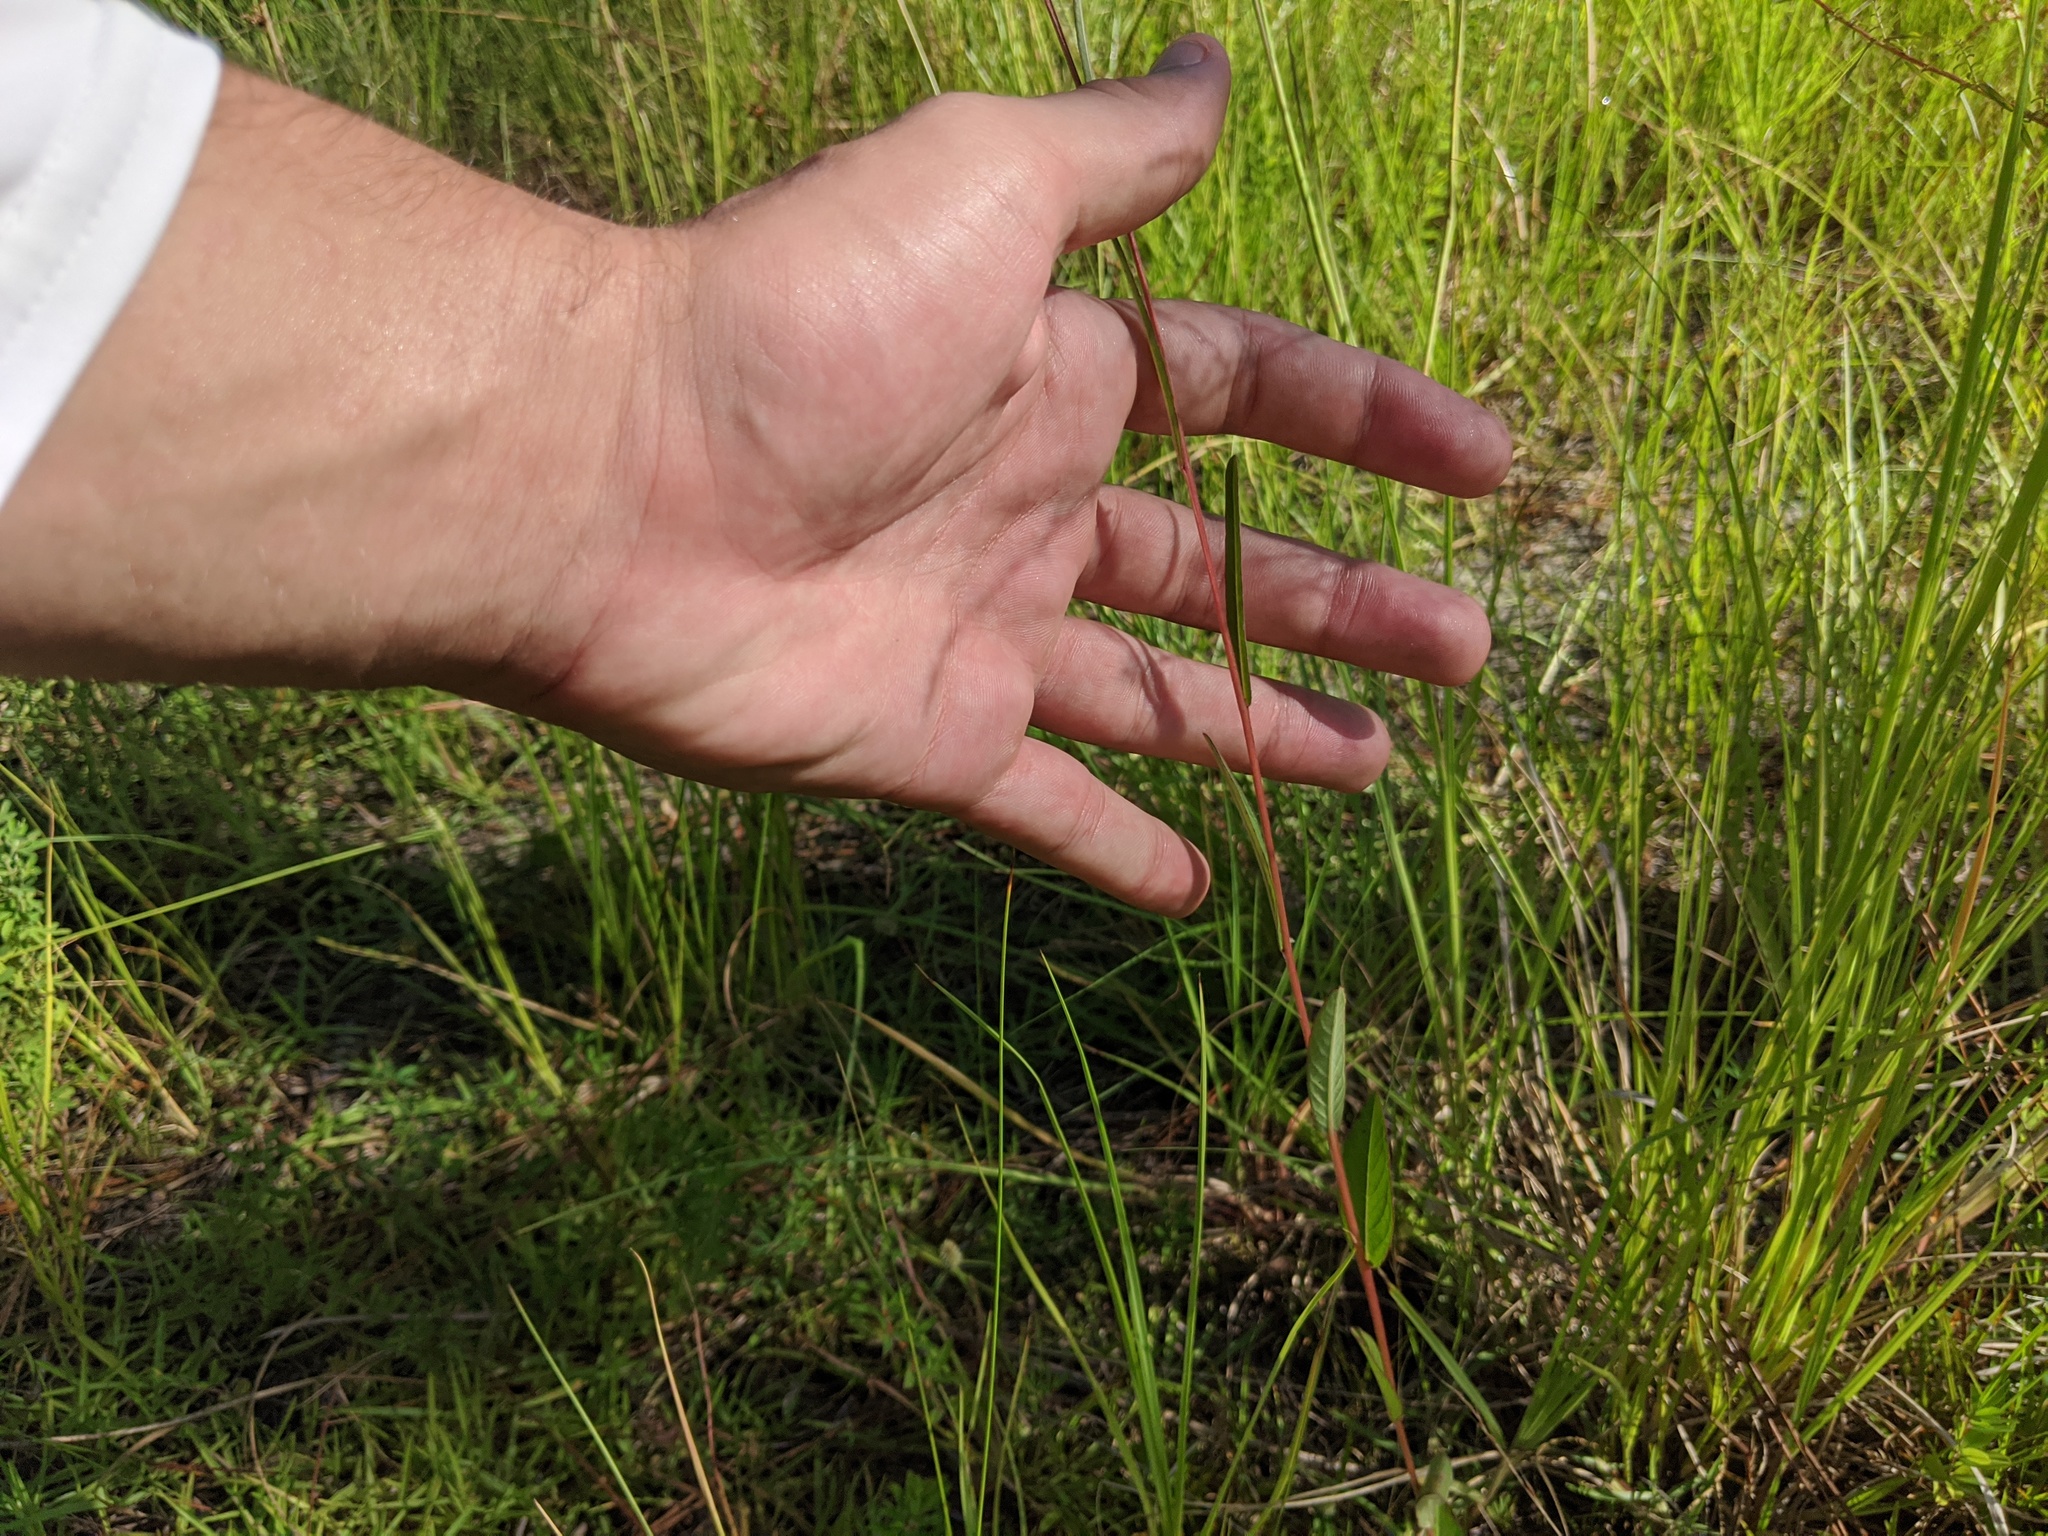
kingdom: Plantae
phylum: Tracheophyta
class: Magnoliopsida
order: Myrtales
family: Onagraceae
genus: Ludwigia
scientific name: Ludwigia maritima
